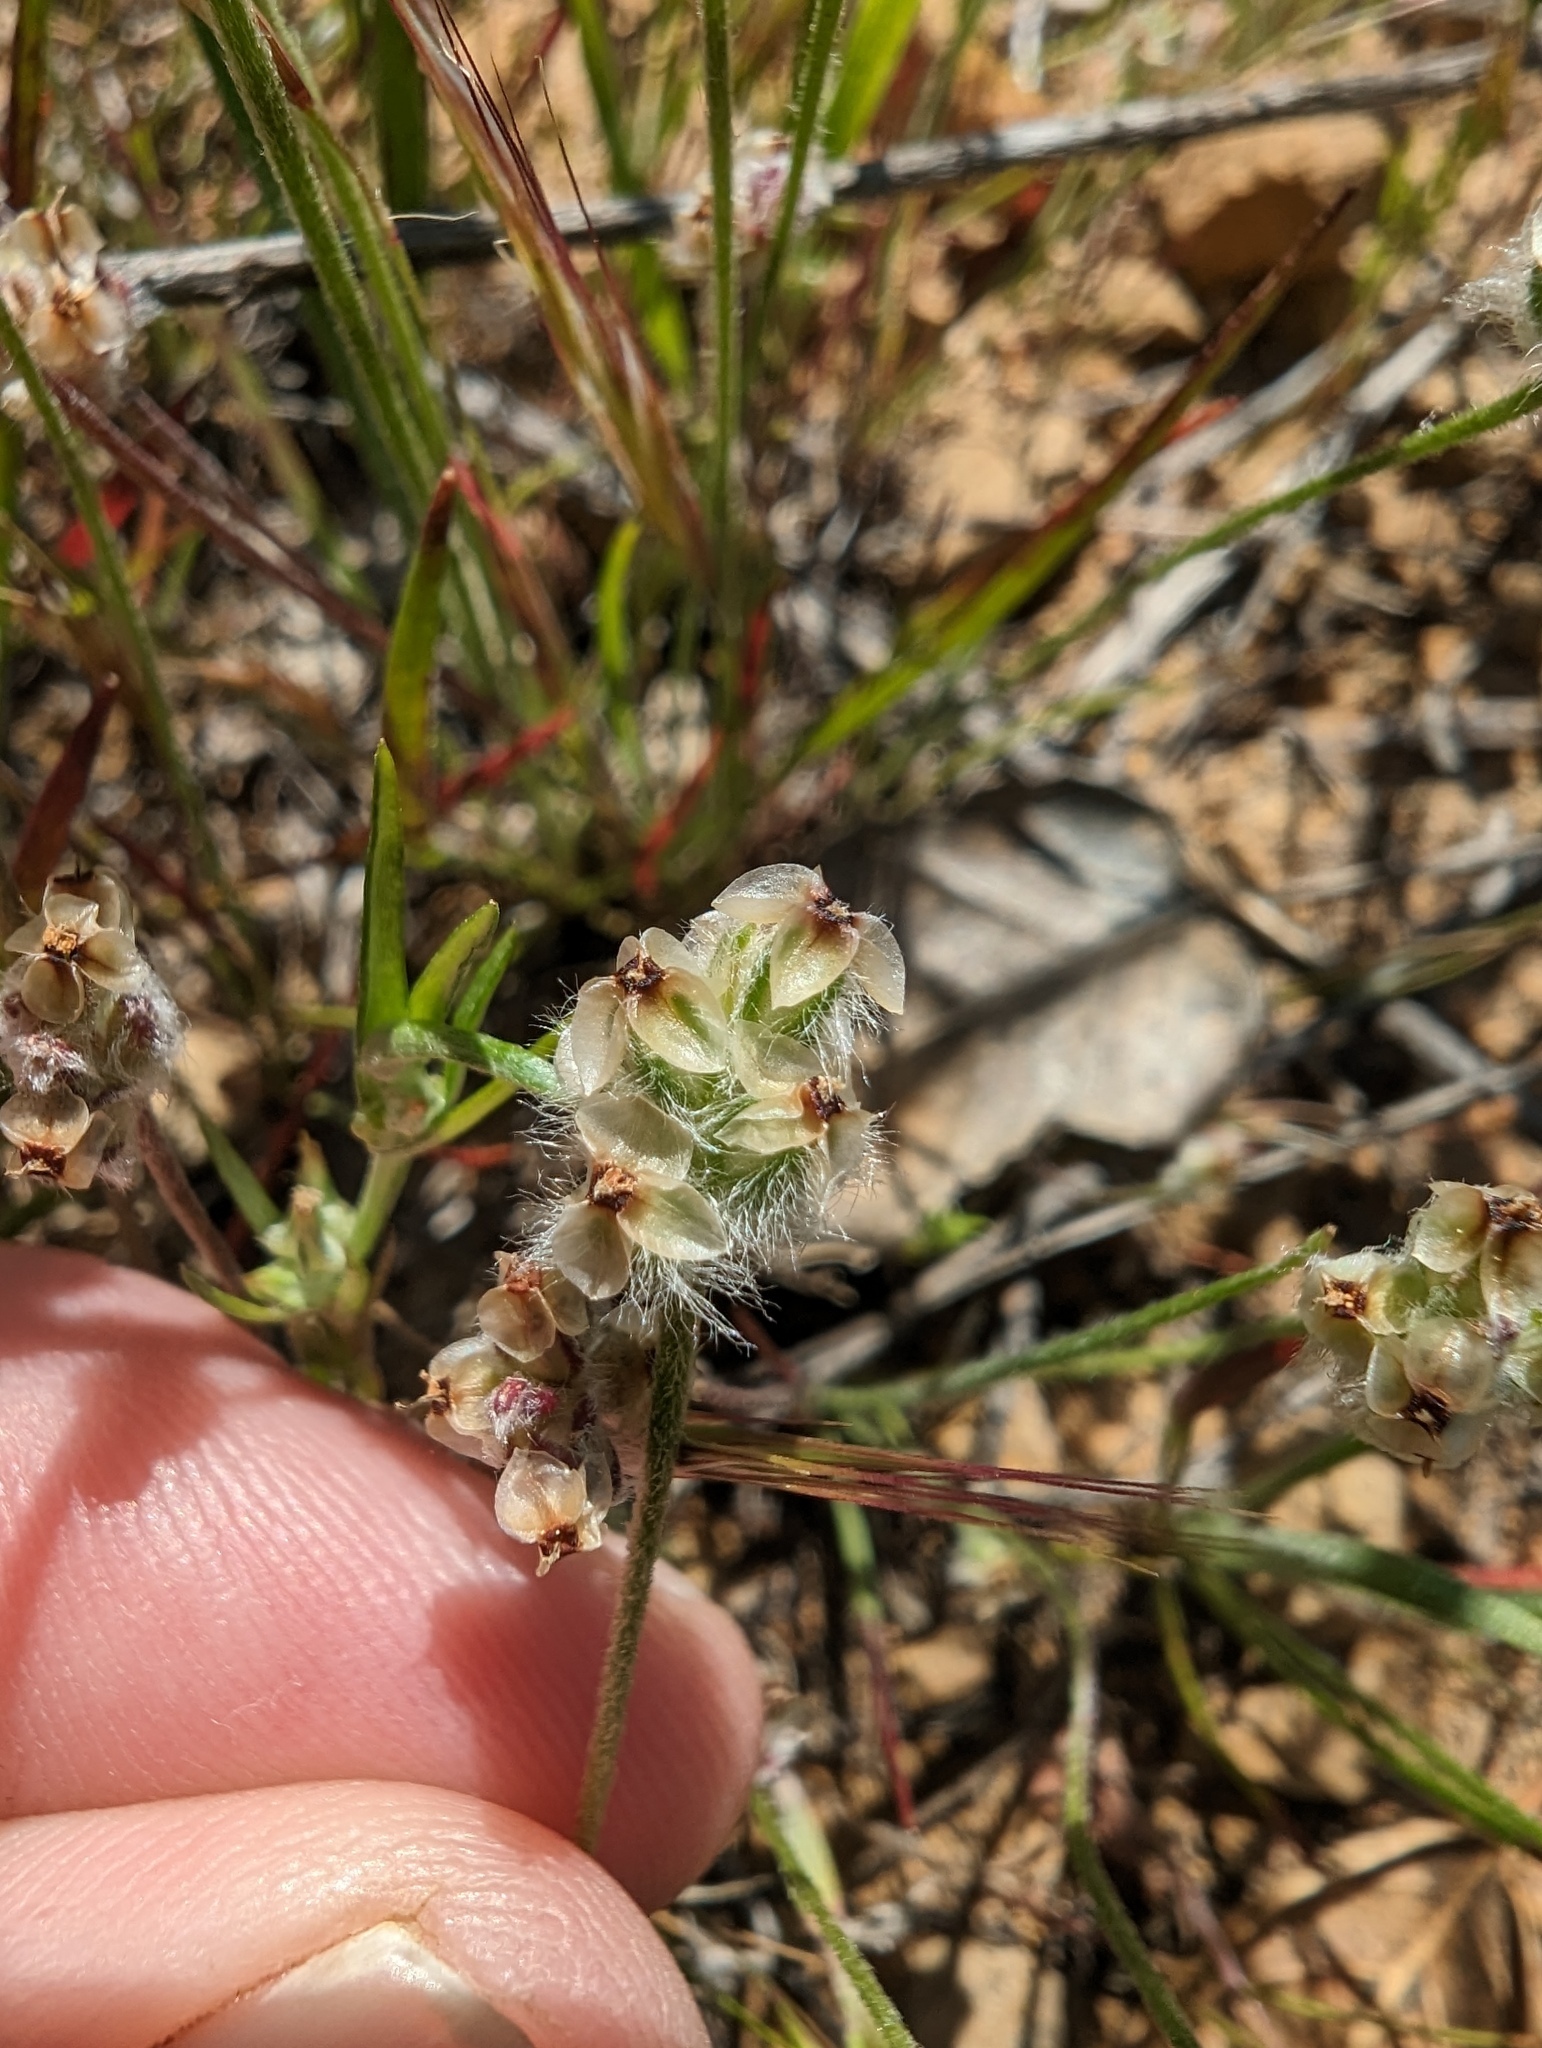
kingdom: Plantae
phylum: Tracheophyta
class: Magnoliopsida
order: Lamiales
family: Plantaginaceae
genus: Plantago
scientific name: Plantago erecta
